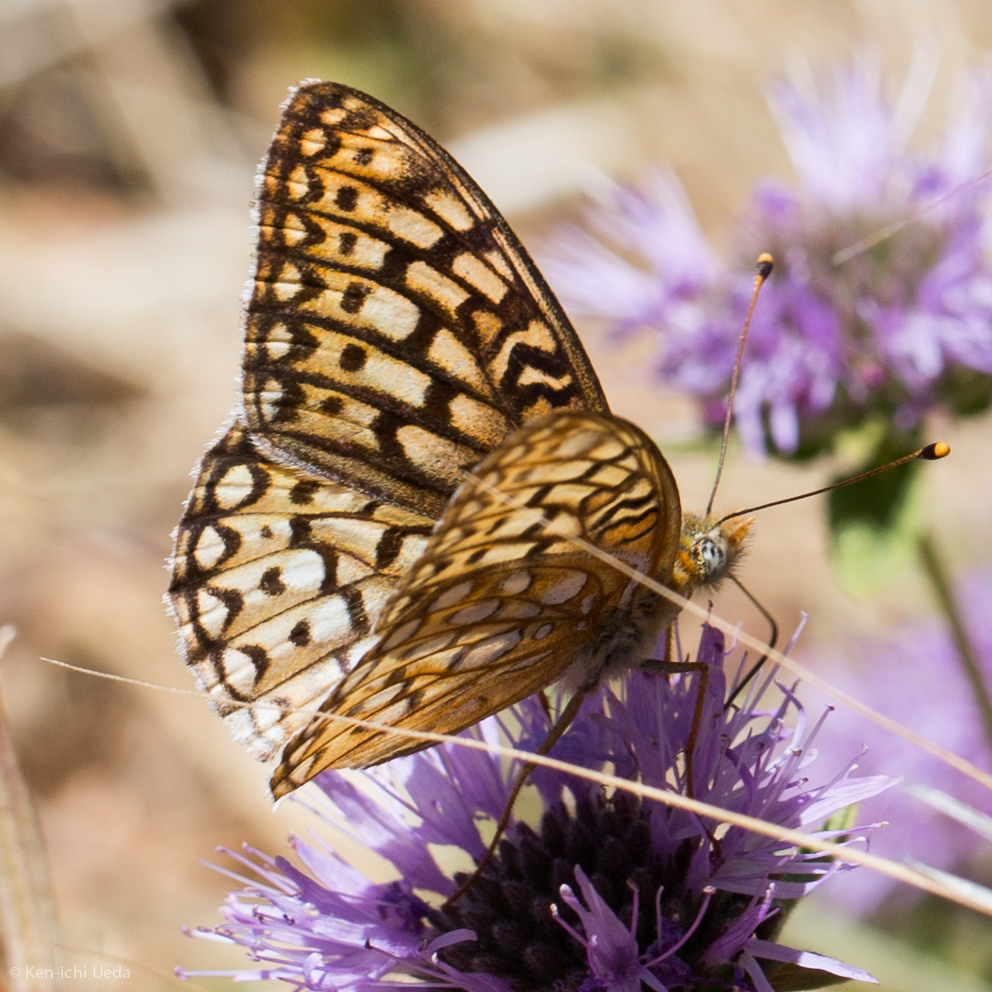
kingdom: Animalia
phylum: Arthropoda
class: Insecta
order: Lepidoptera
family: Nymphalidae
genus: Speyeria
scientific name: Speyeria callippe
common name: Callippe fritillary
